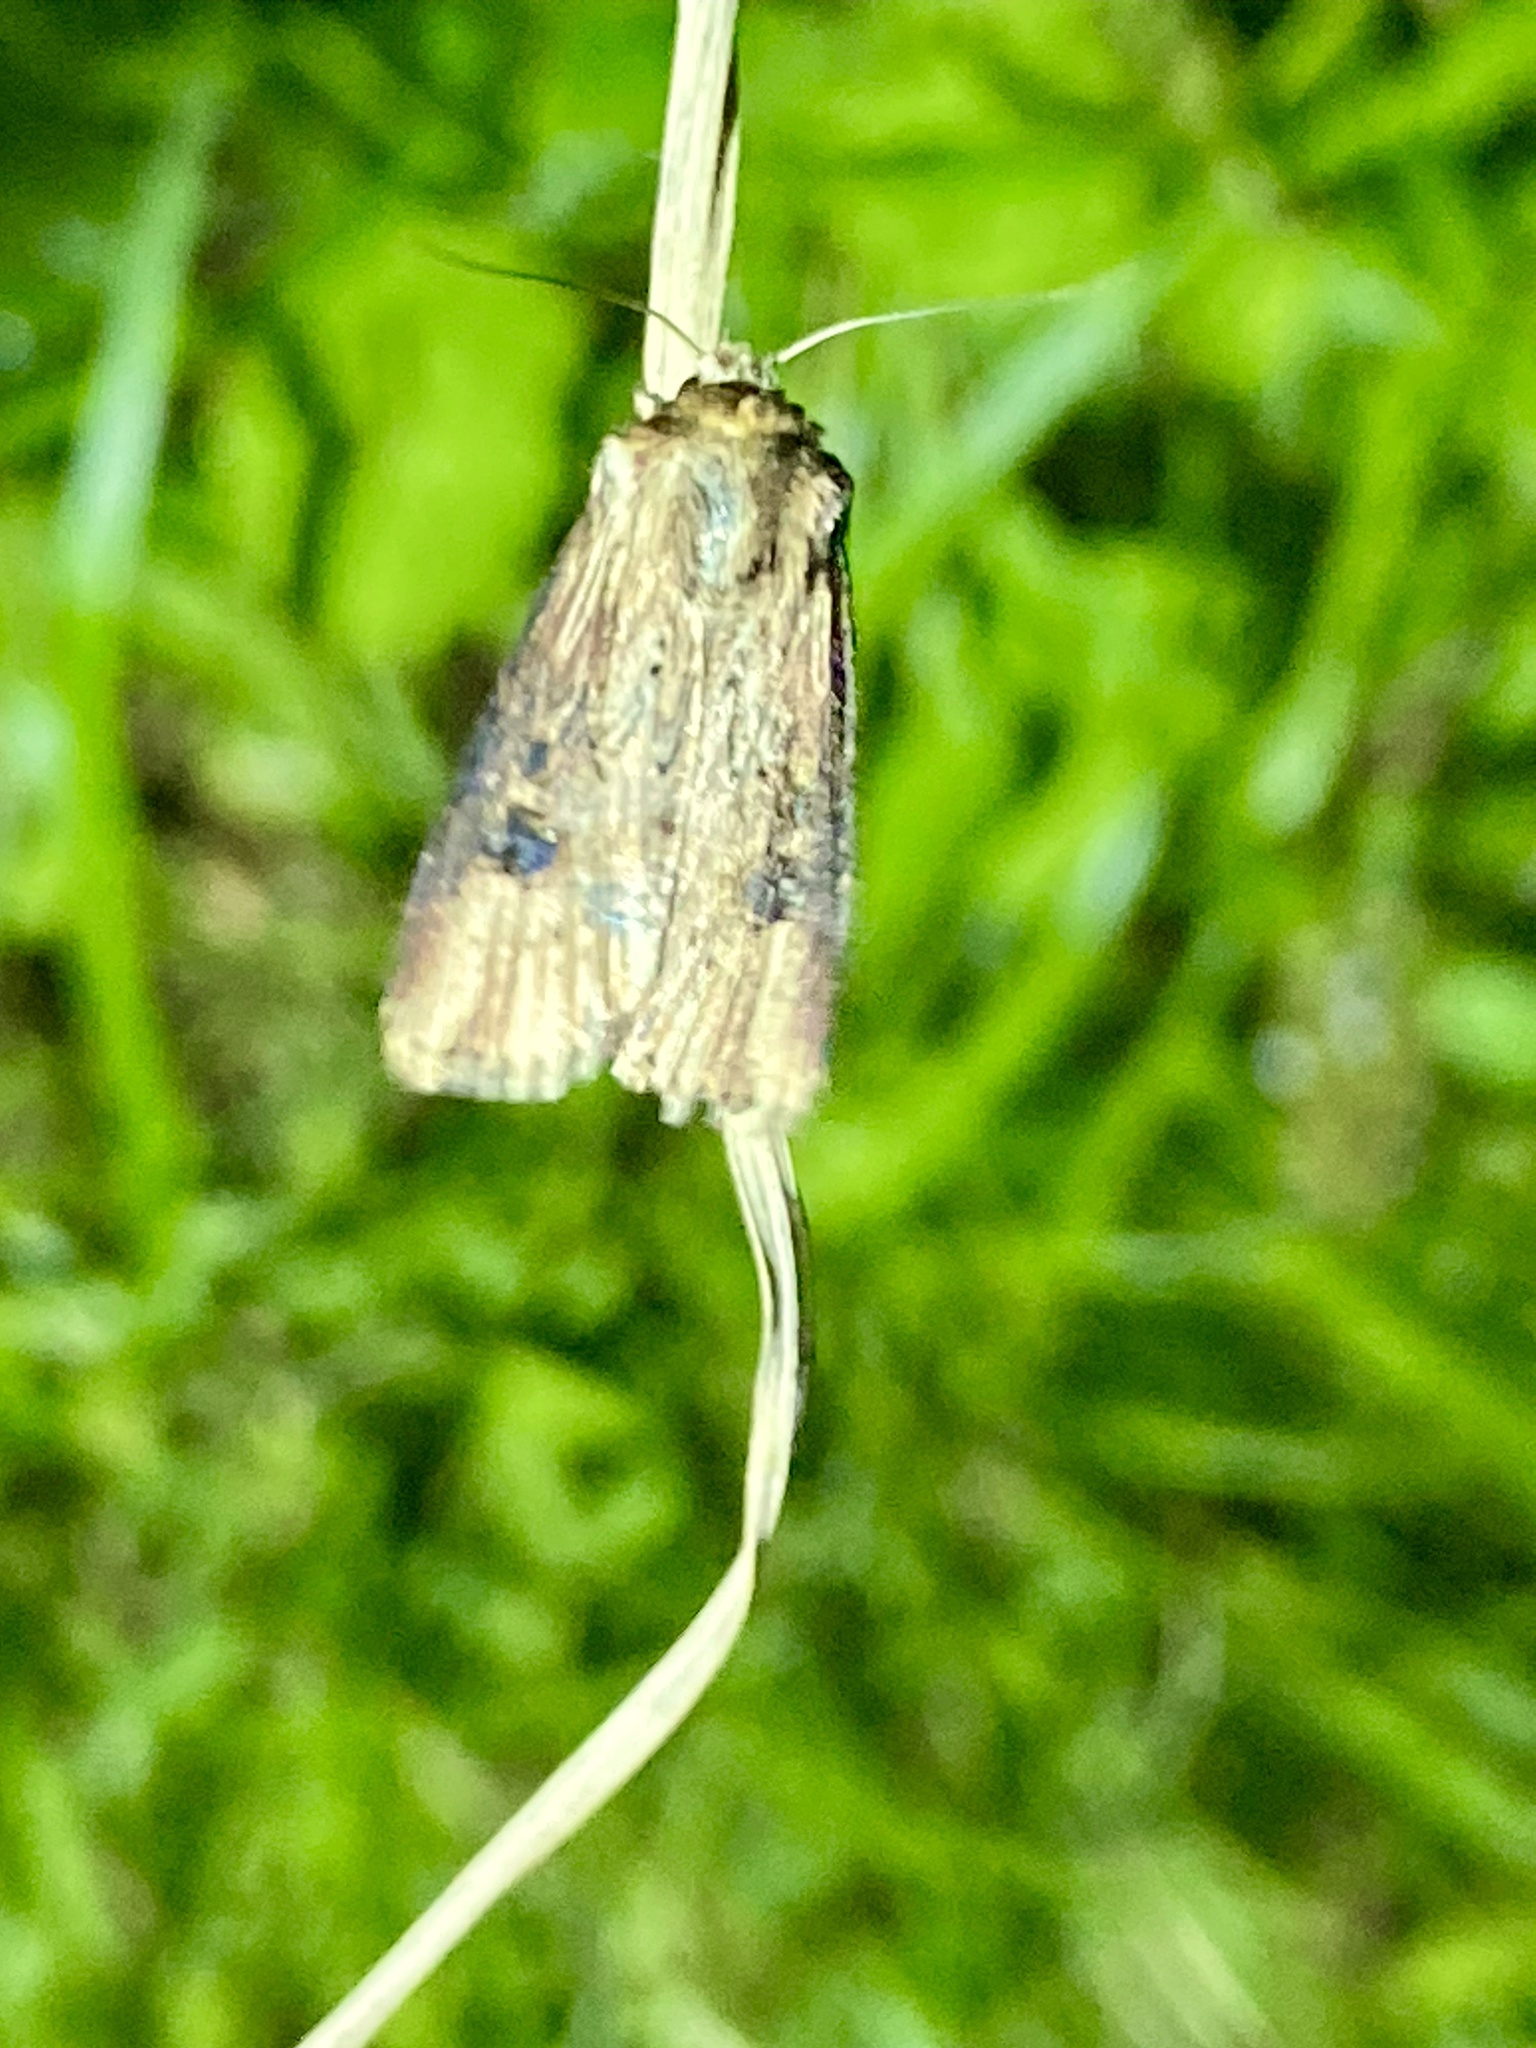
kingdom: Animalia
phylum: Arthropoda
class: Insecta
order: Lepidoptera
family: Noctuidae
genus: Axylia
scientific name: Axylia putris
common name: Flame
